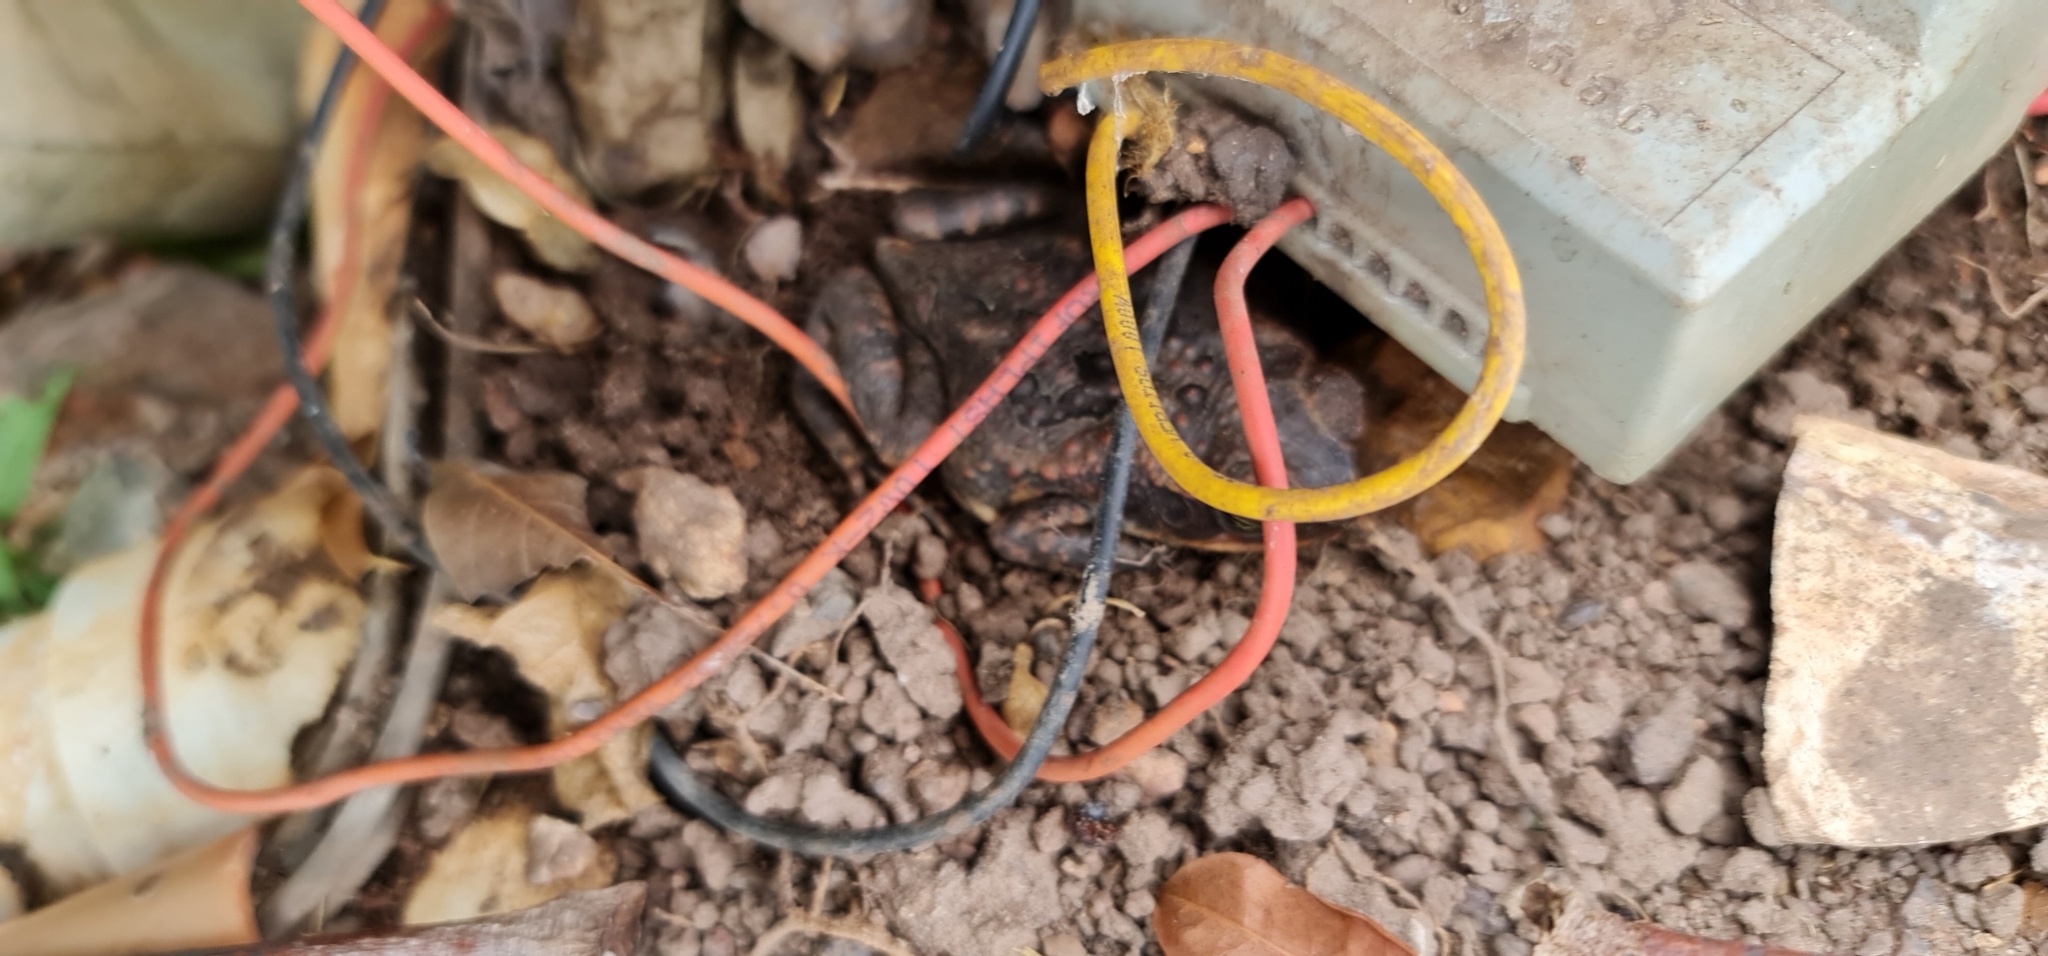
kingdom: Animalia
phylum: Chordata
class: Amphibia
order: Anura
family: Bufonidae
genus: Rhinella
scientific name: Rhinella marina
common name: Cane toad
